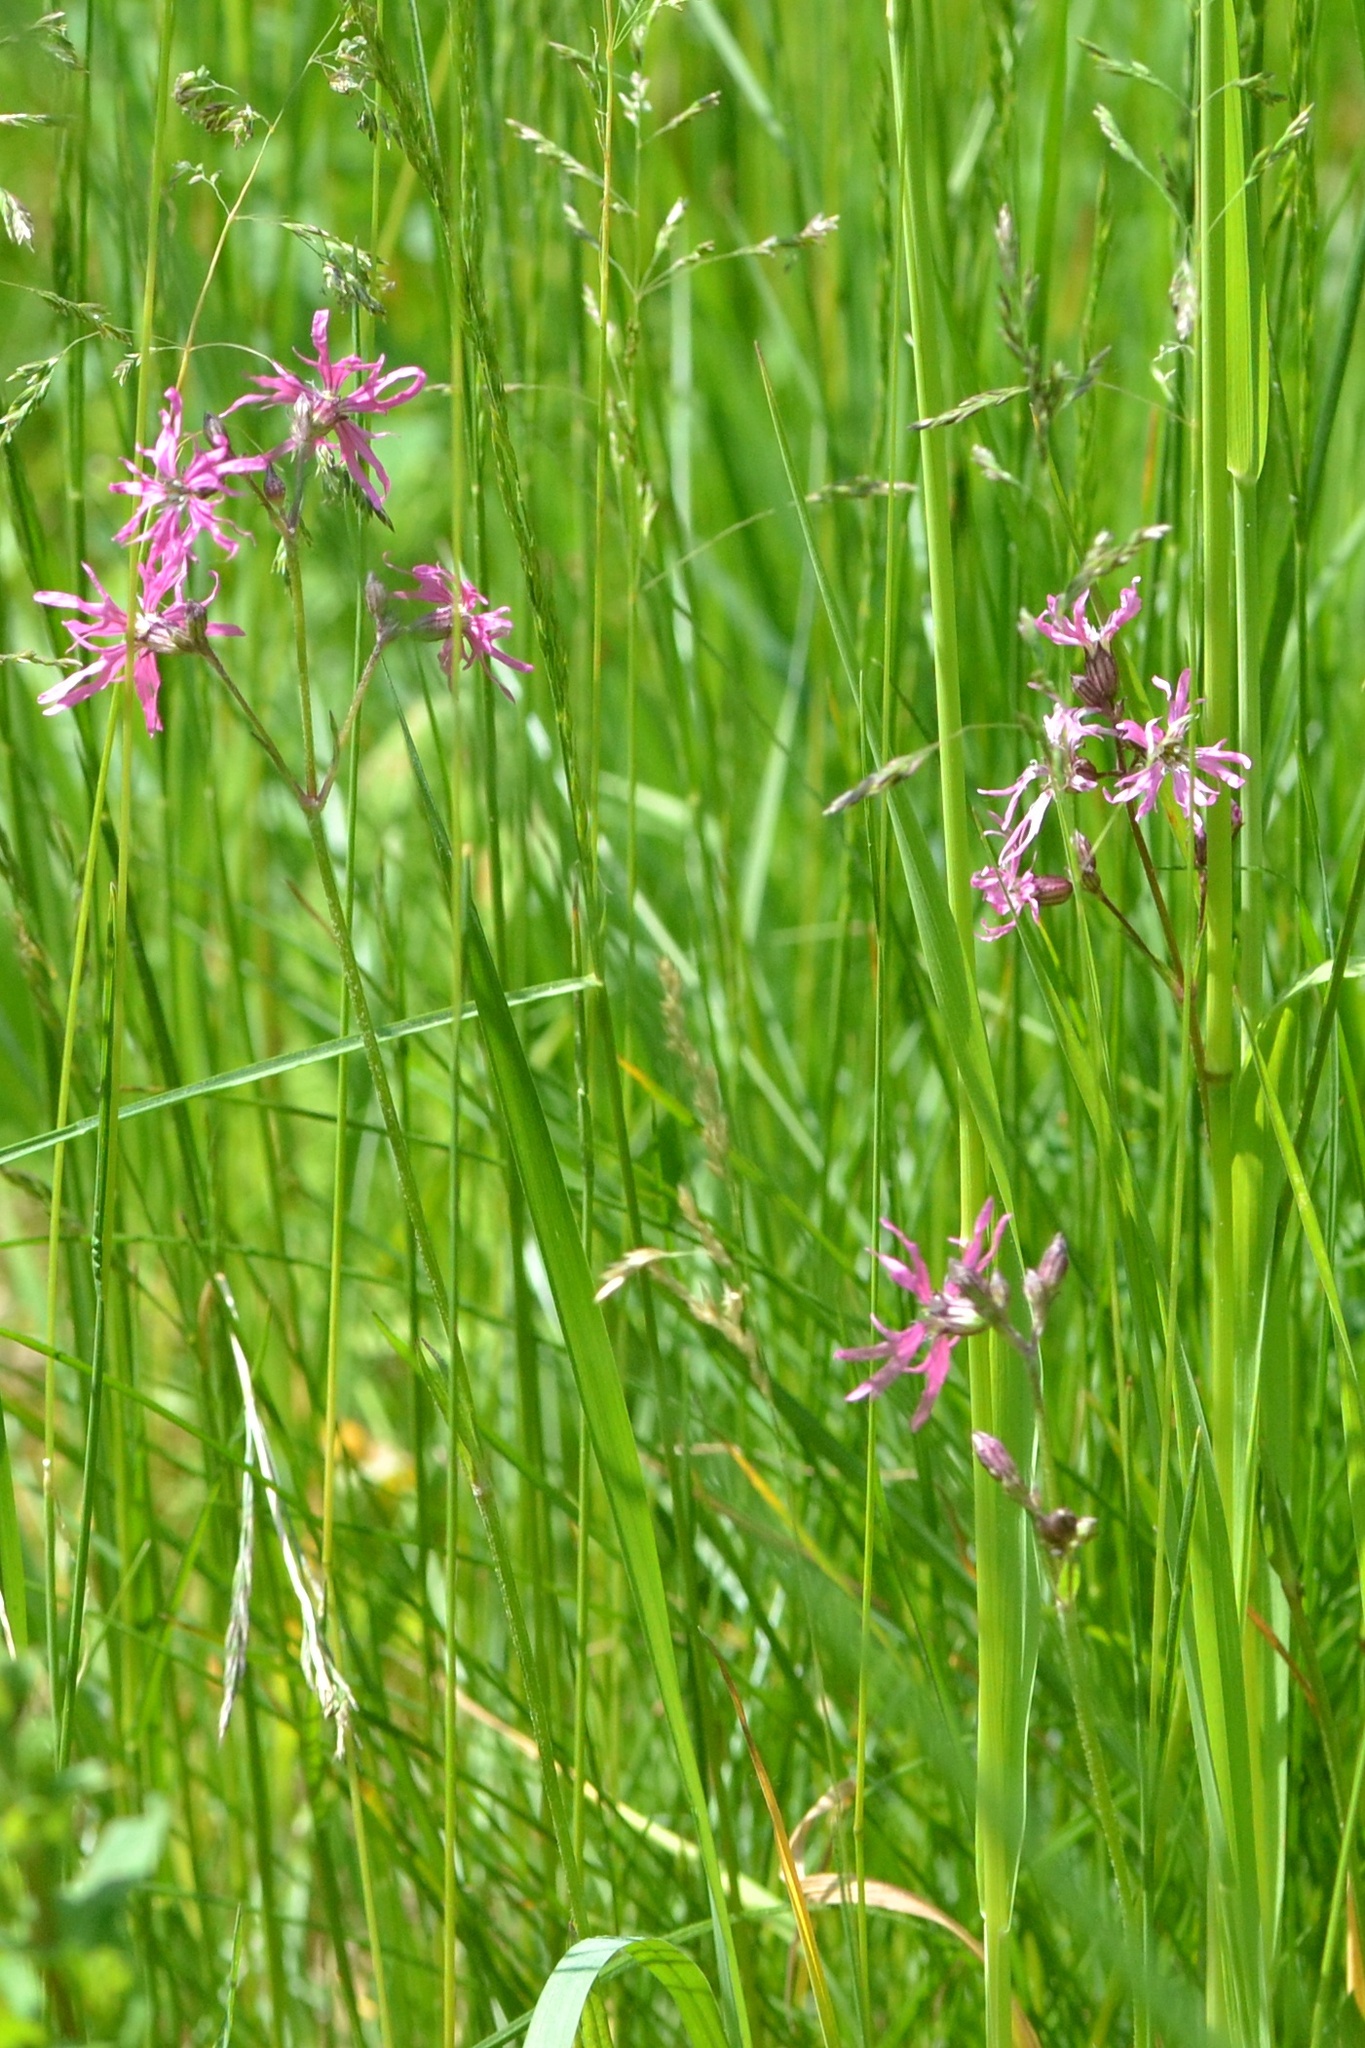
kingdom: Plantae
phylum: Tracheophyta
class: Magnoliopsida
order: Caryophyllales
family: Caryophyllaceae
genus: Silene
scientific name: Silene flos-cuculi
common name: Ragged-robin
